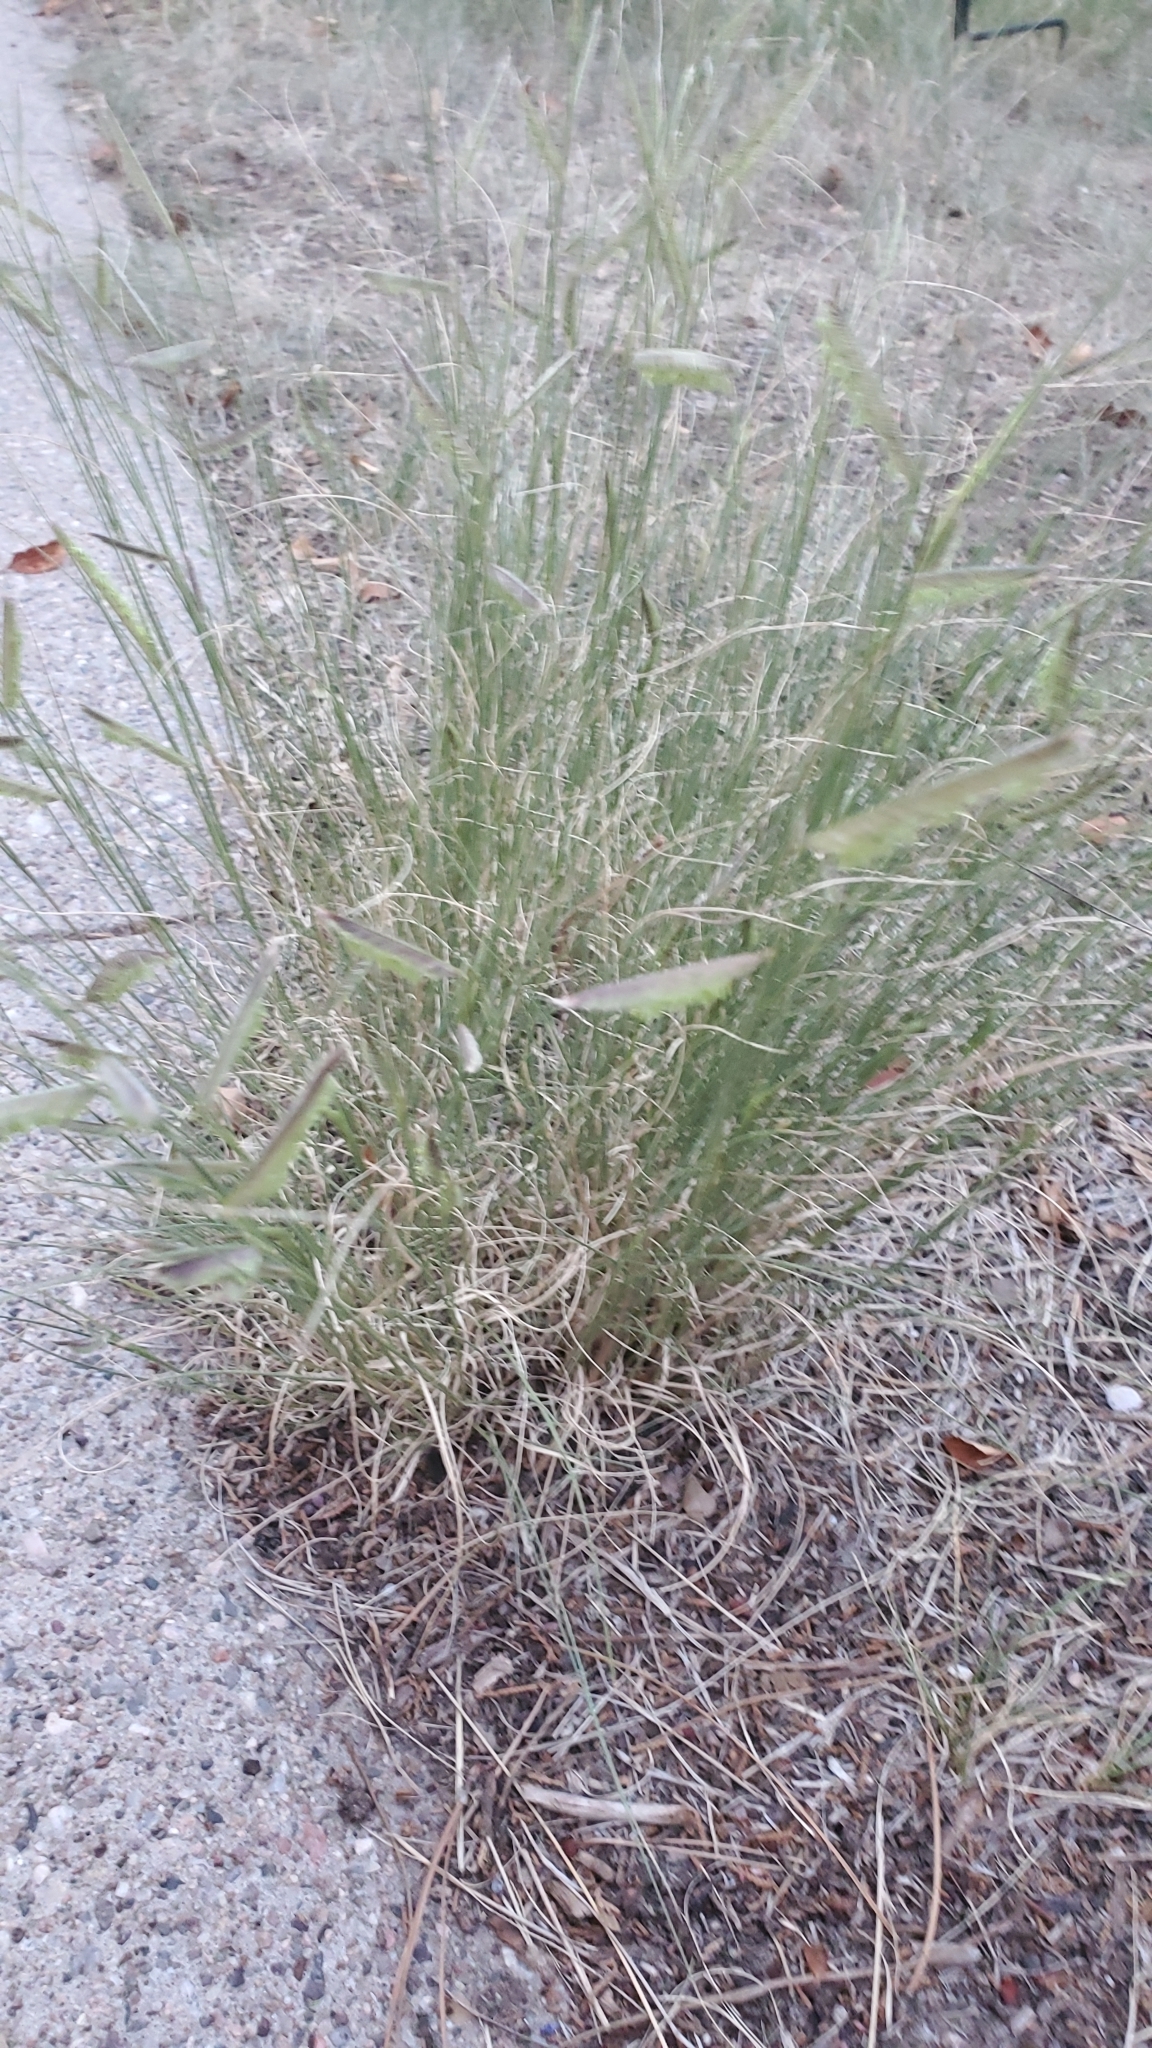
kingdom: Plantae
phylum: Tracheophyta
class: Liliopsida
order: Poales
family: Poaceae
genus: Bouteloua
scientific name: Bouteloua gracilis
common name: Blue grama
